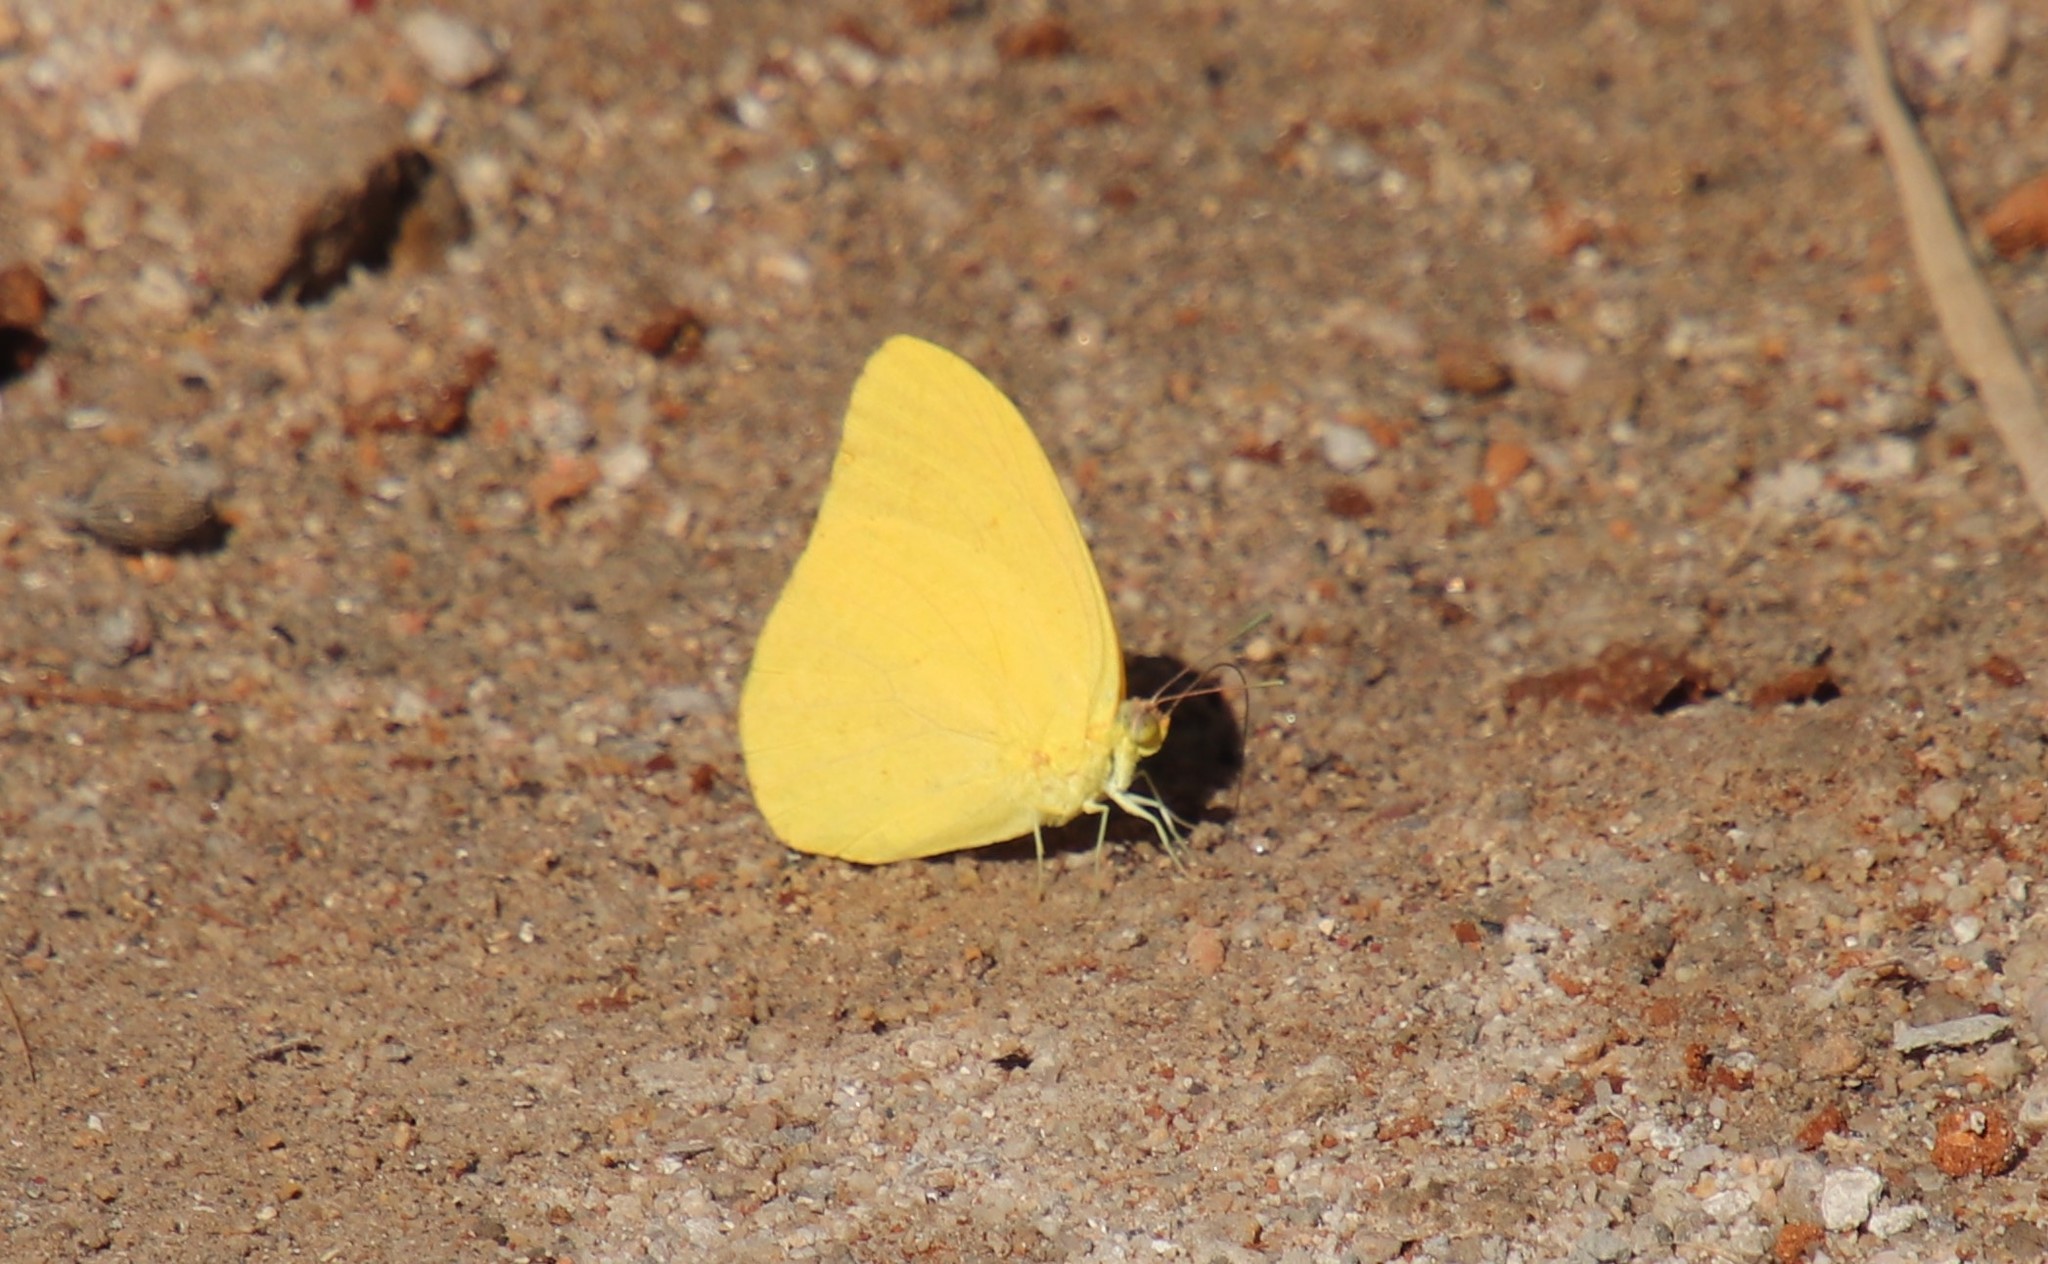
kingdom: Animalia
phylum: Arthropoda
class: Insecta
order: Lepidoptera
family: Pieridae
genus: Phoebis
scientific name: Phoebis agarithe
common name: Large orange sulphur
